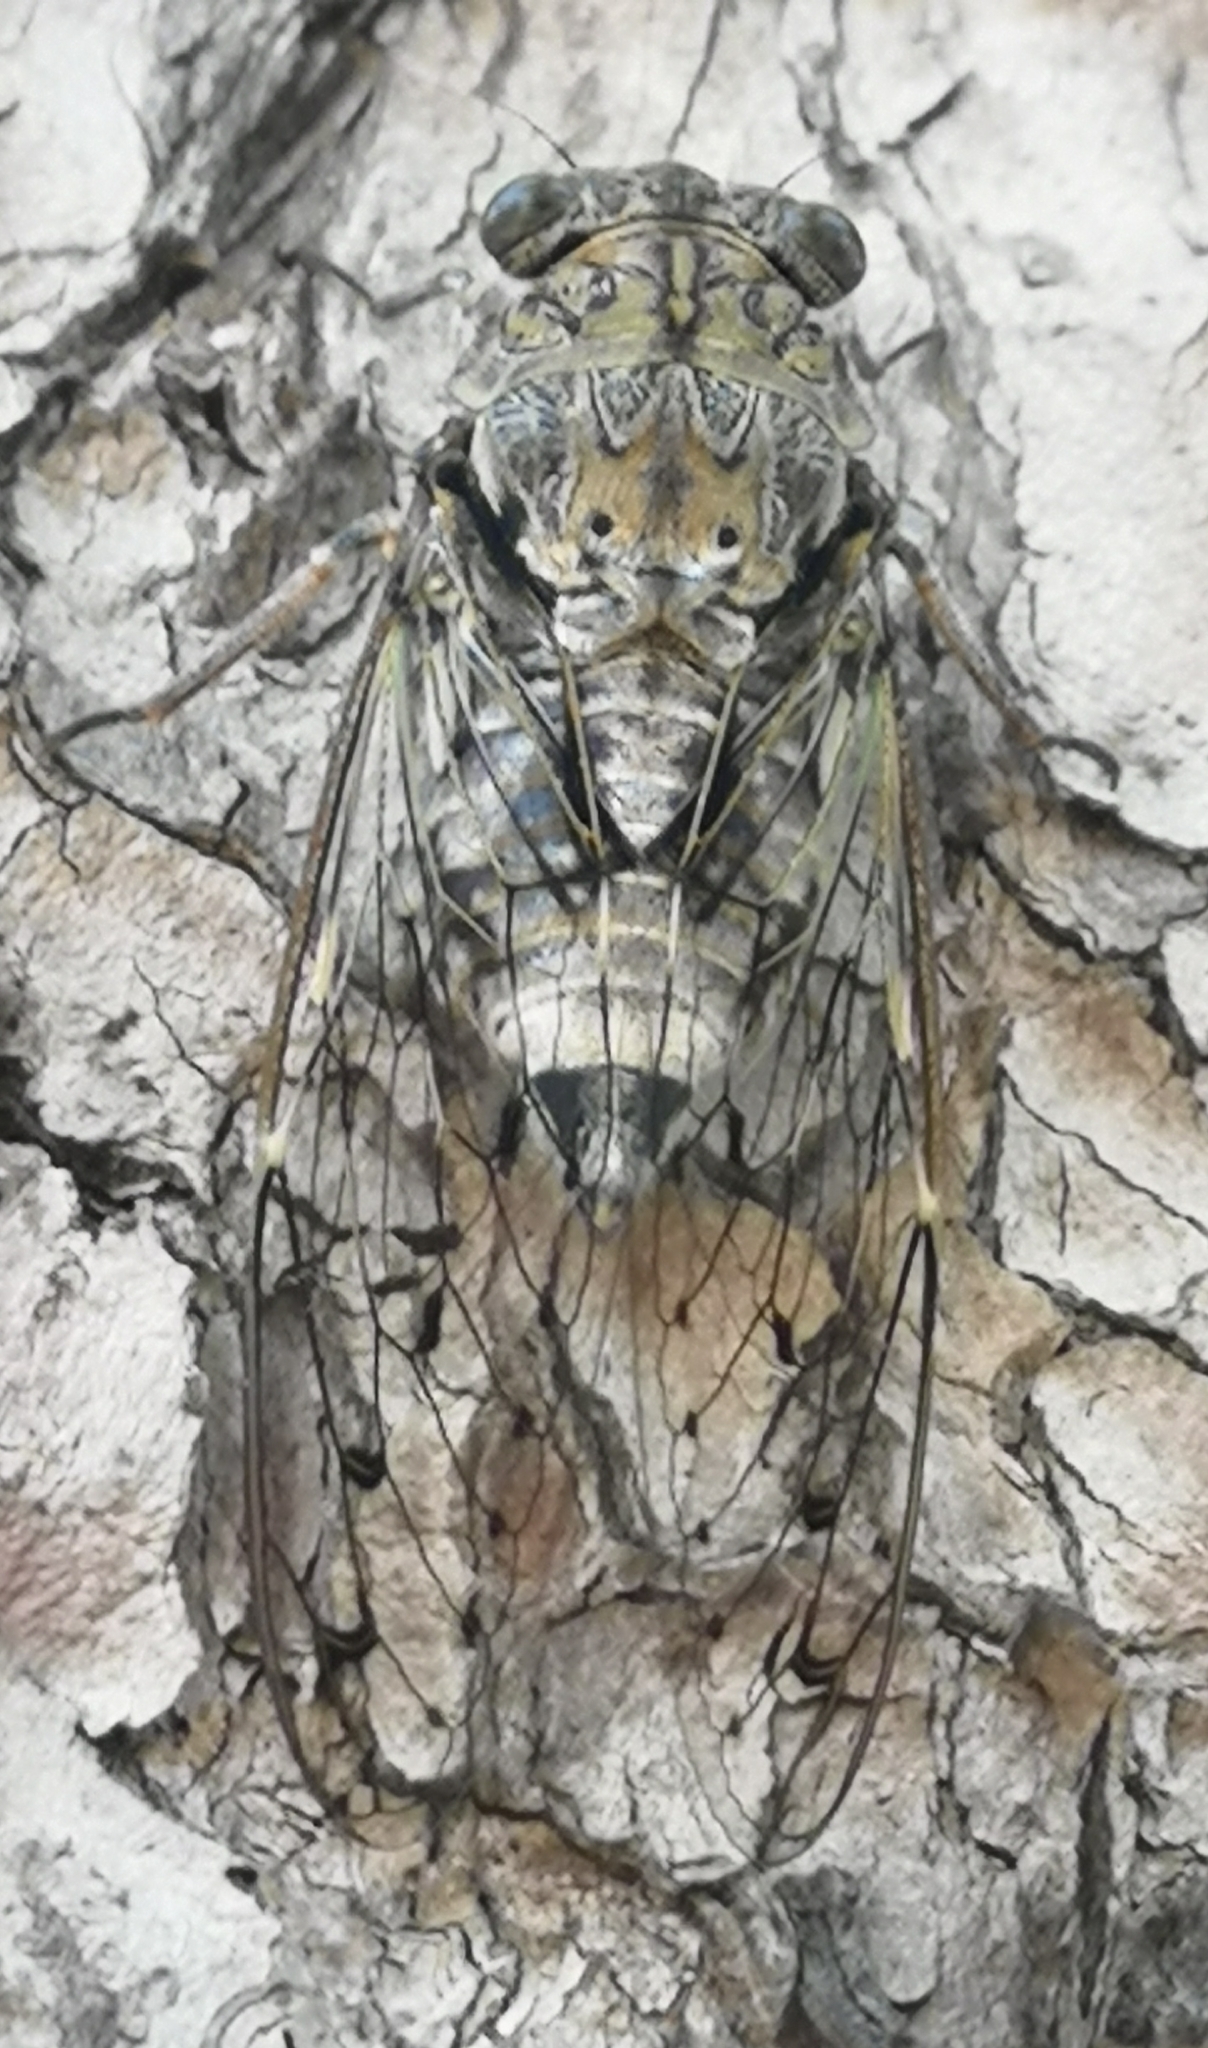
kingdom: Animalia
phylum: Arthropoda
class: Insecta
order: Hemiptera
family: Cicadidae
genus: Cicada
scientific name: Cicada orni
